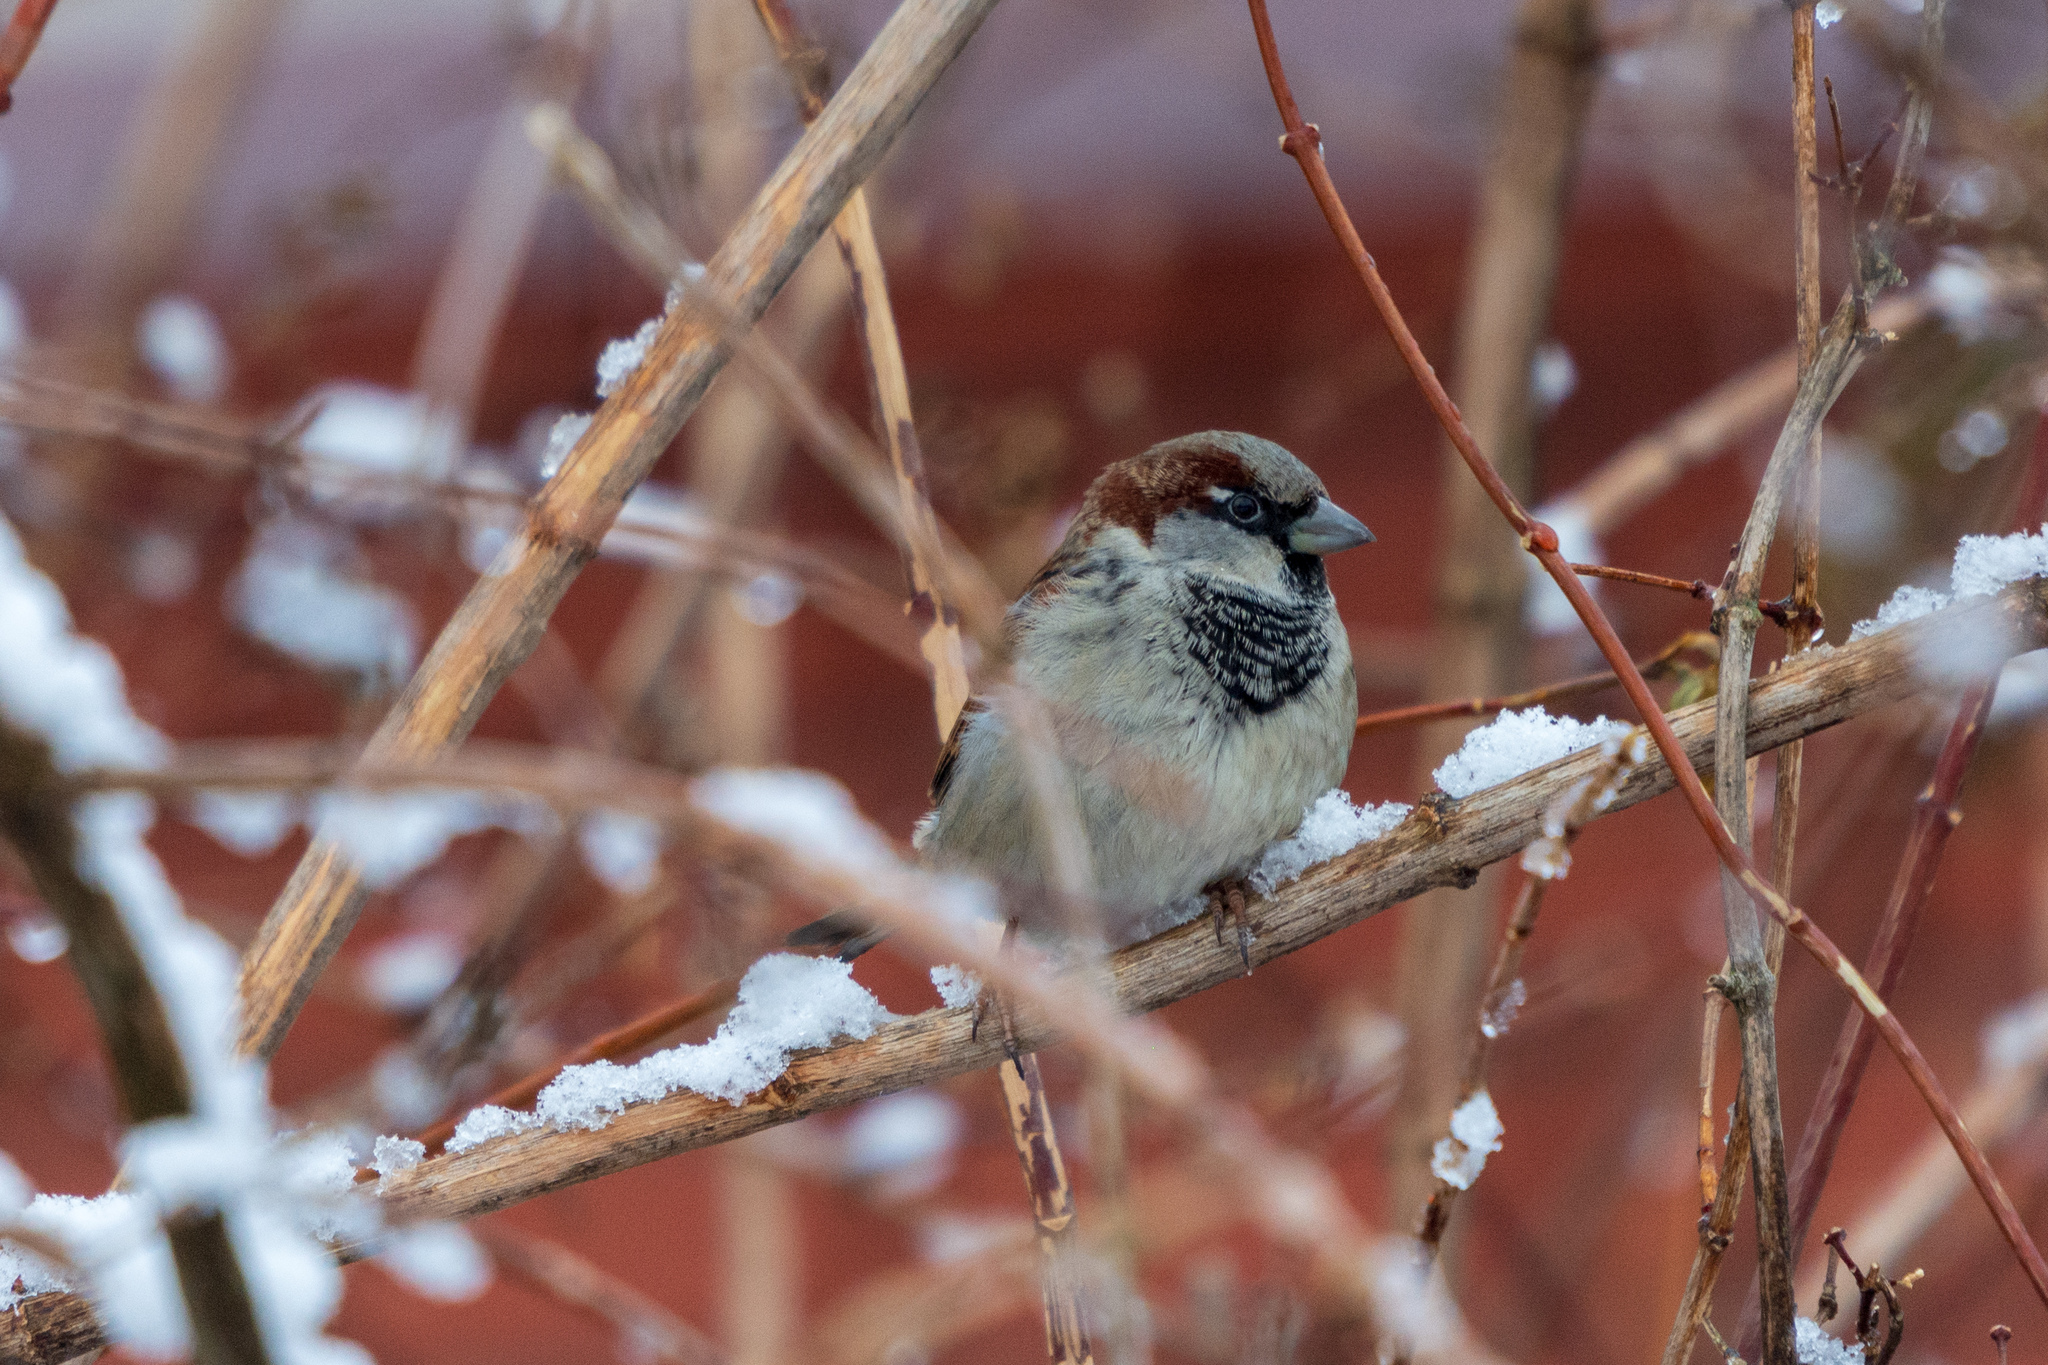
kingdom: Animalia
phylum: Chordata
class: Aves
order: Passeriformes
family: Passeridae
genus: Passer
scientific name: Passer domesticus
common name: House sparrow
